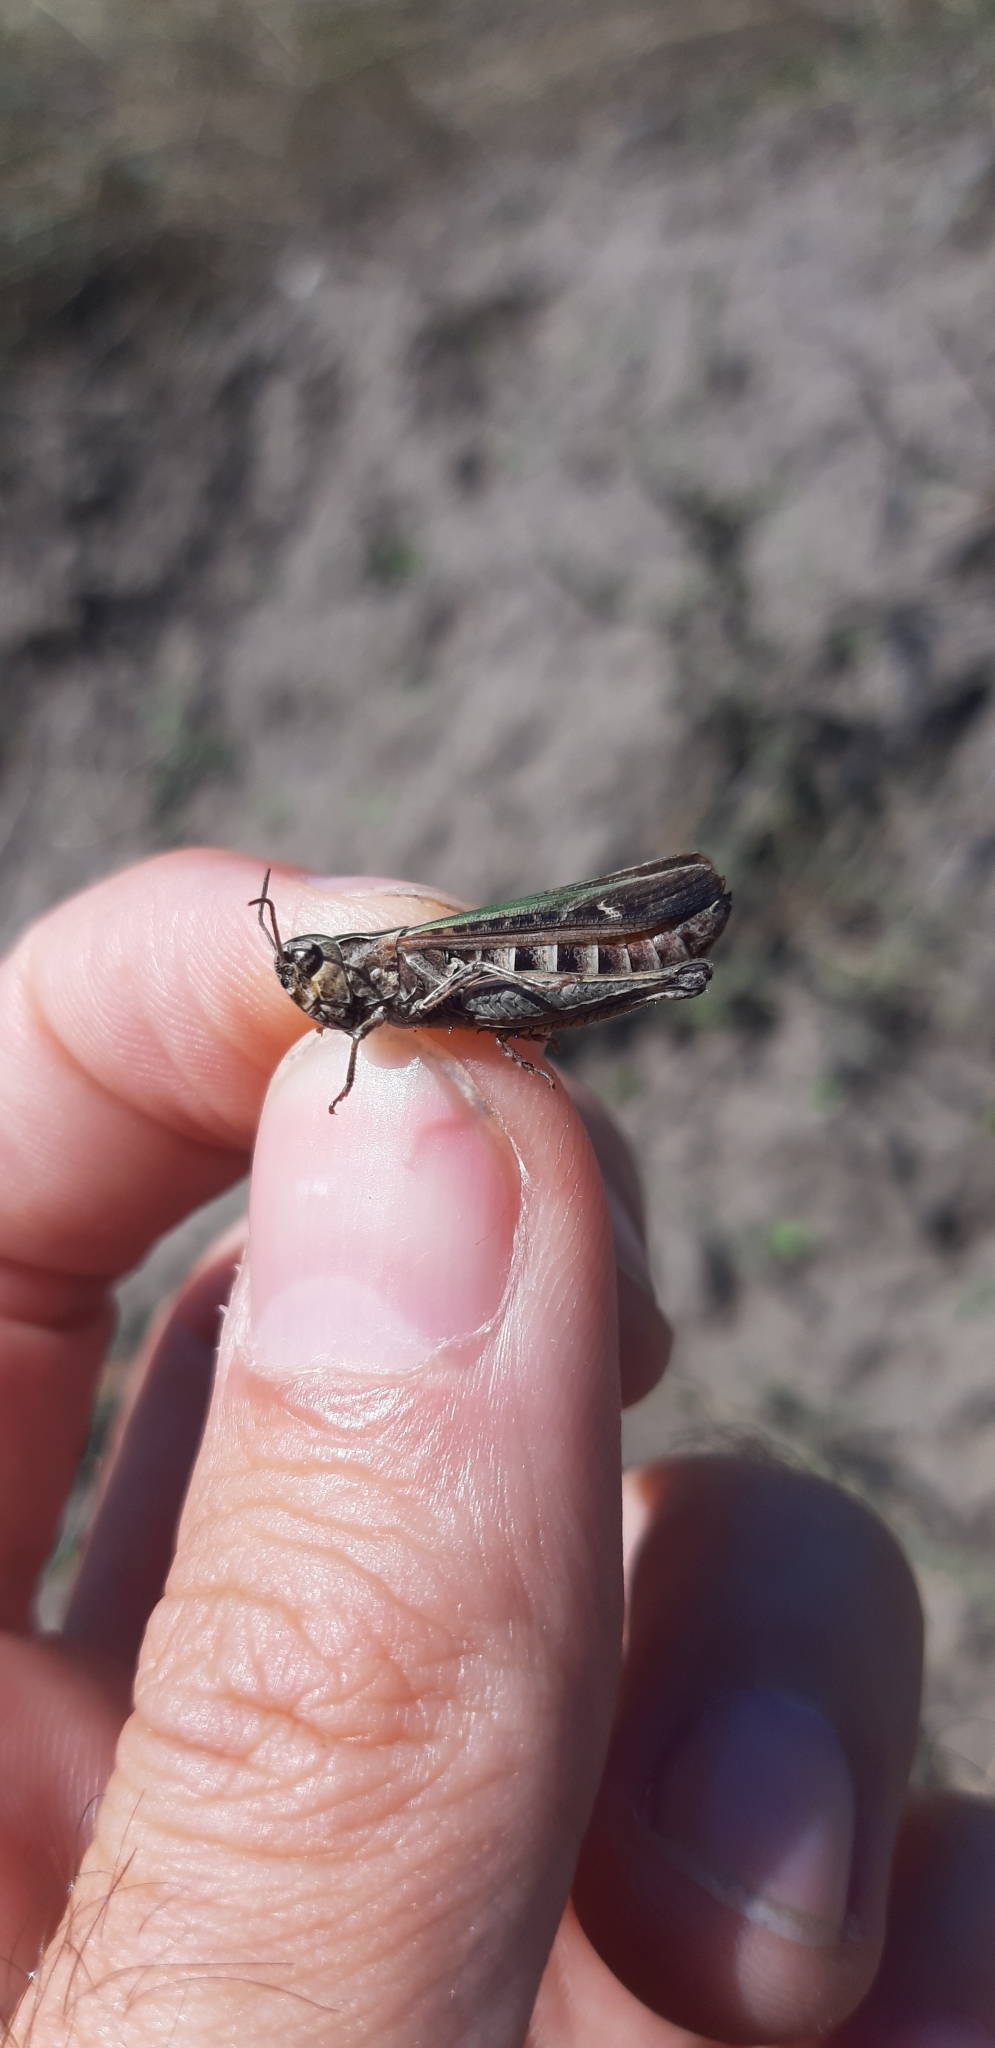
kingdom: Animalia
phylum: Arthropoda
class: Insecta
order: Orthoptera
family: Acrididae
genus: Omocestus
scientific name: Omocestus rufipes
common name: Woodland grasshopper
